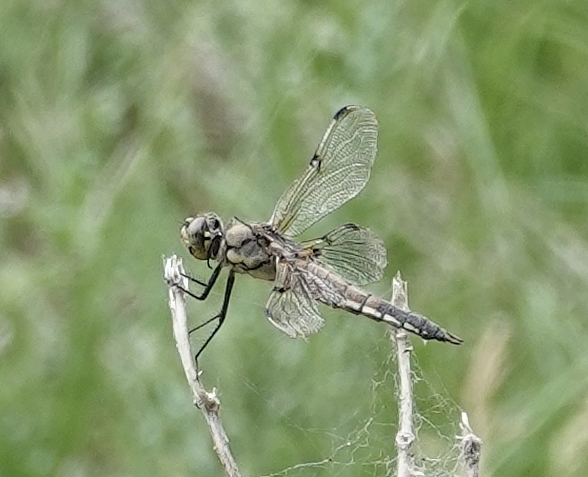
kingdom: Animalia
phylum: Arthropoda
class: Insecta
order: Odonata
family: Libellulidae
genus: Libellula
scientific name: Libellula quadrimaculata
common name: Four-spotted chaser
